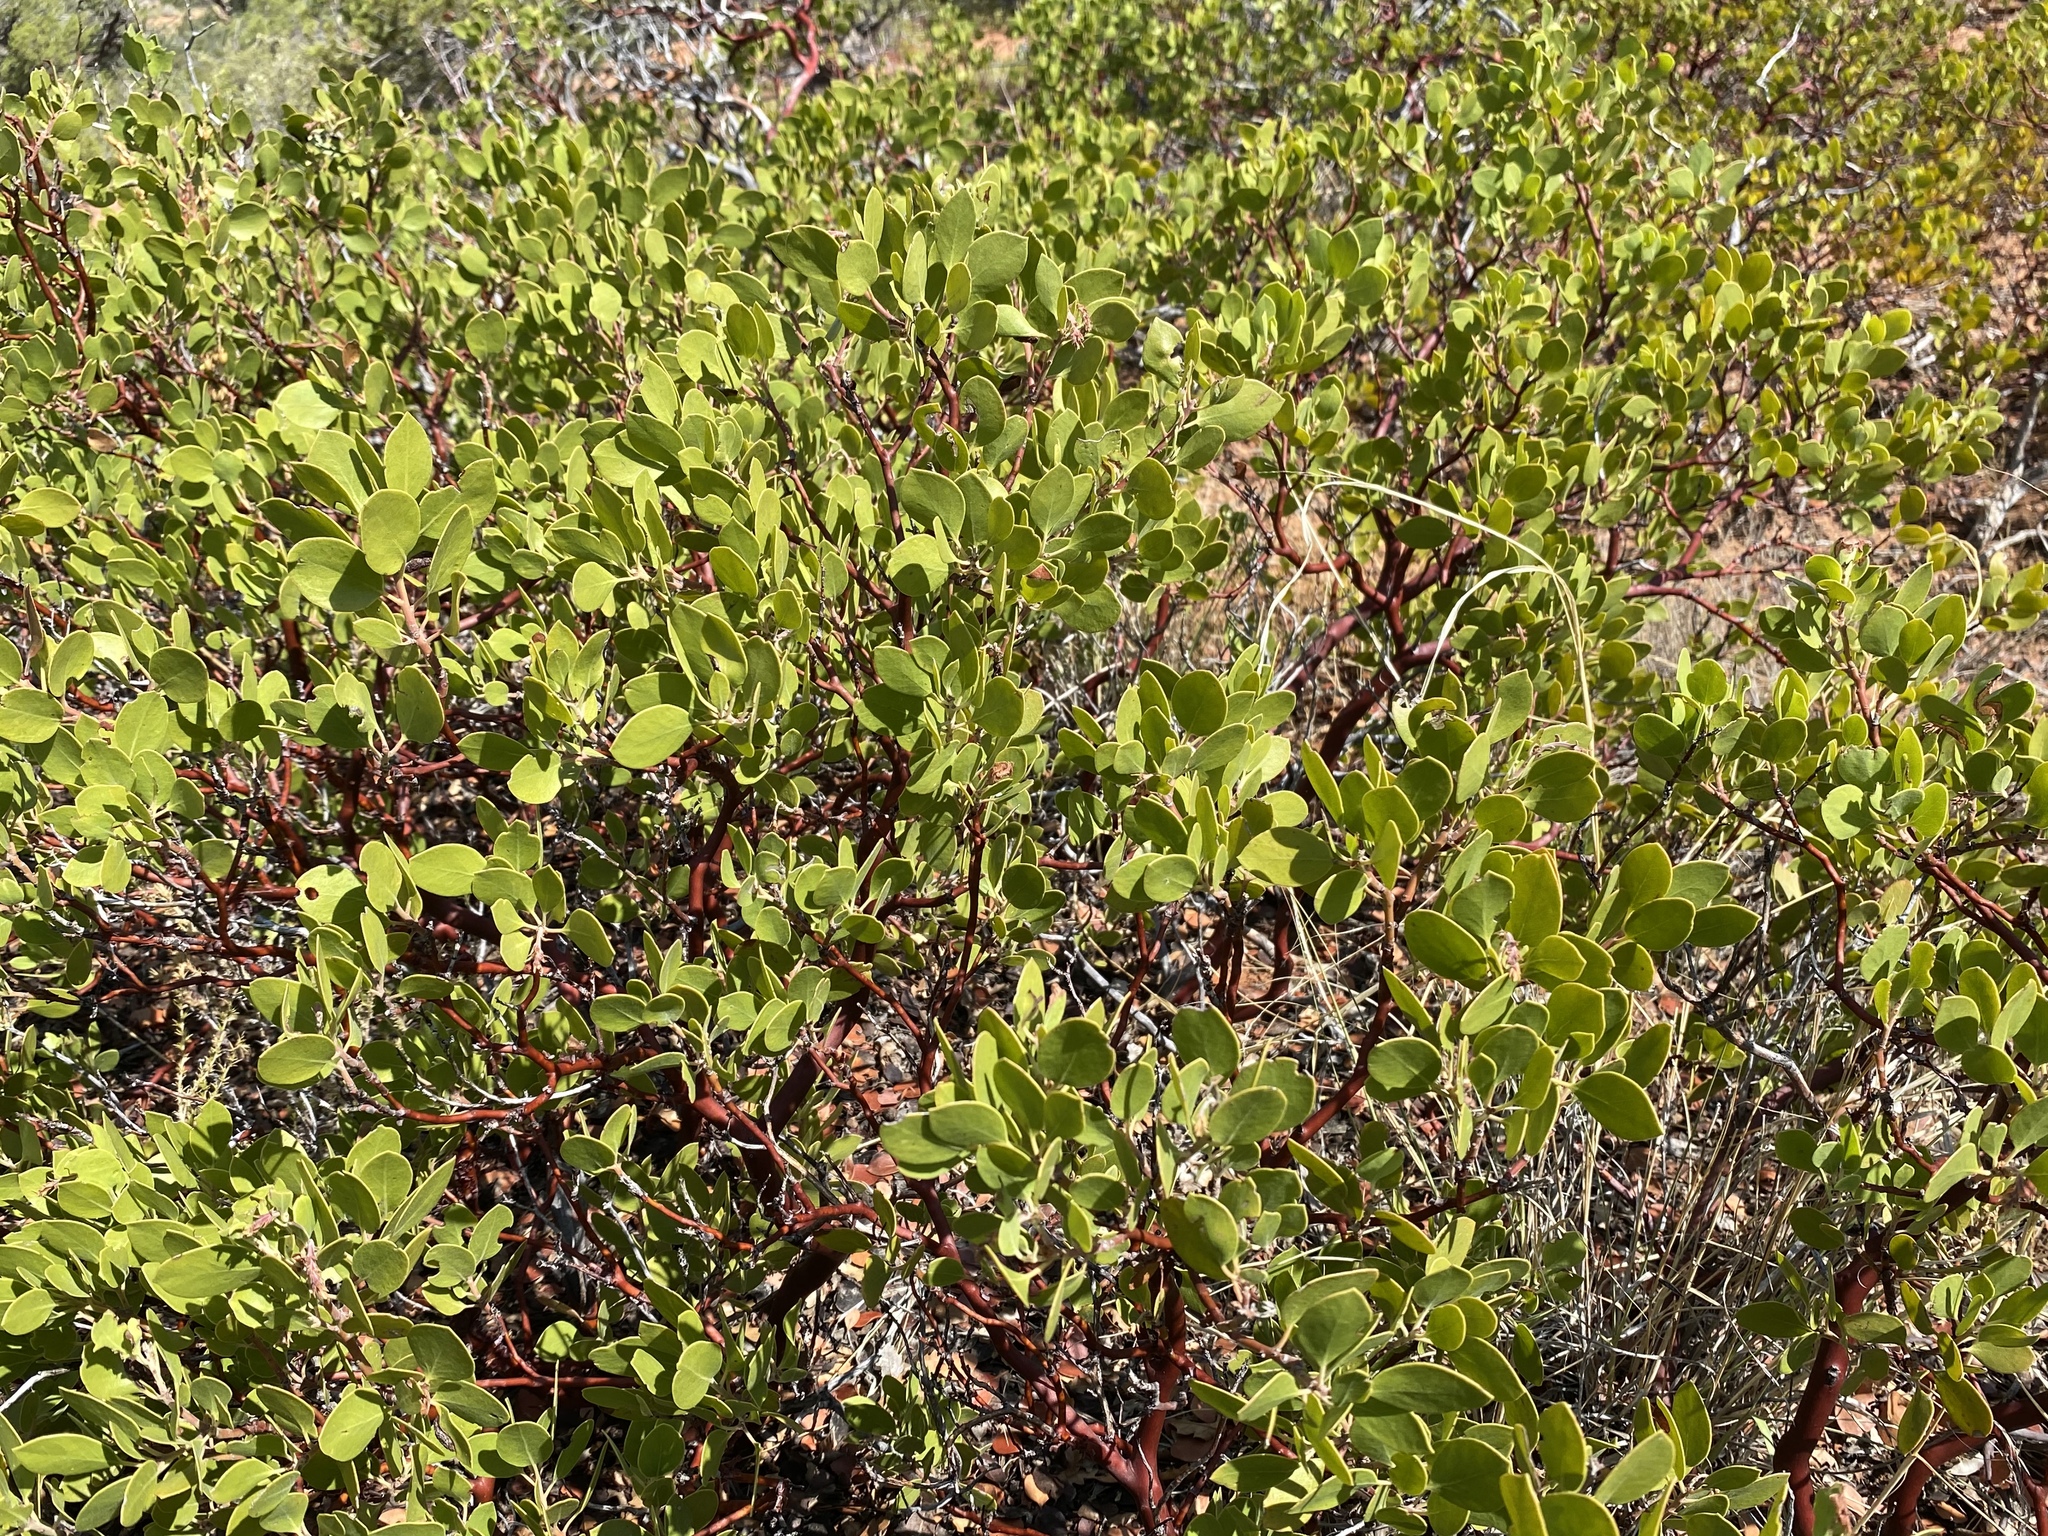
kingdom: Plantae
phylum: Tracheophyta
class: Magnoliopsida
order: Ericales
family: Ericaceae
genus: Arctostaphylos
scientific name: Arctostaphylos patula
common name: Green-leaf manzanita
